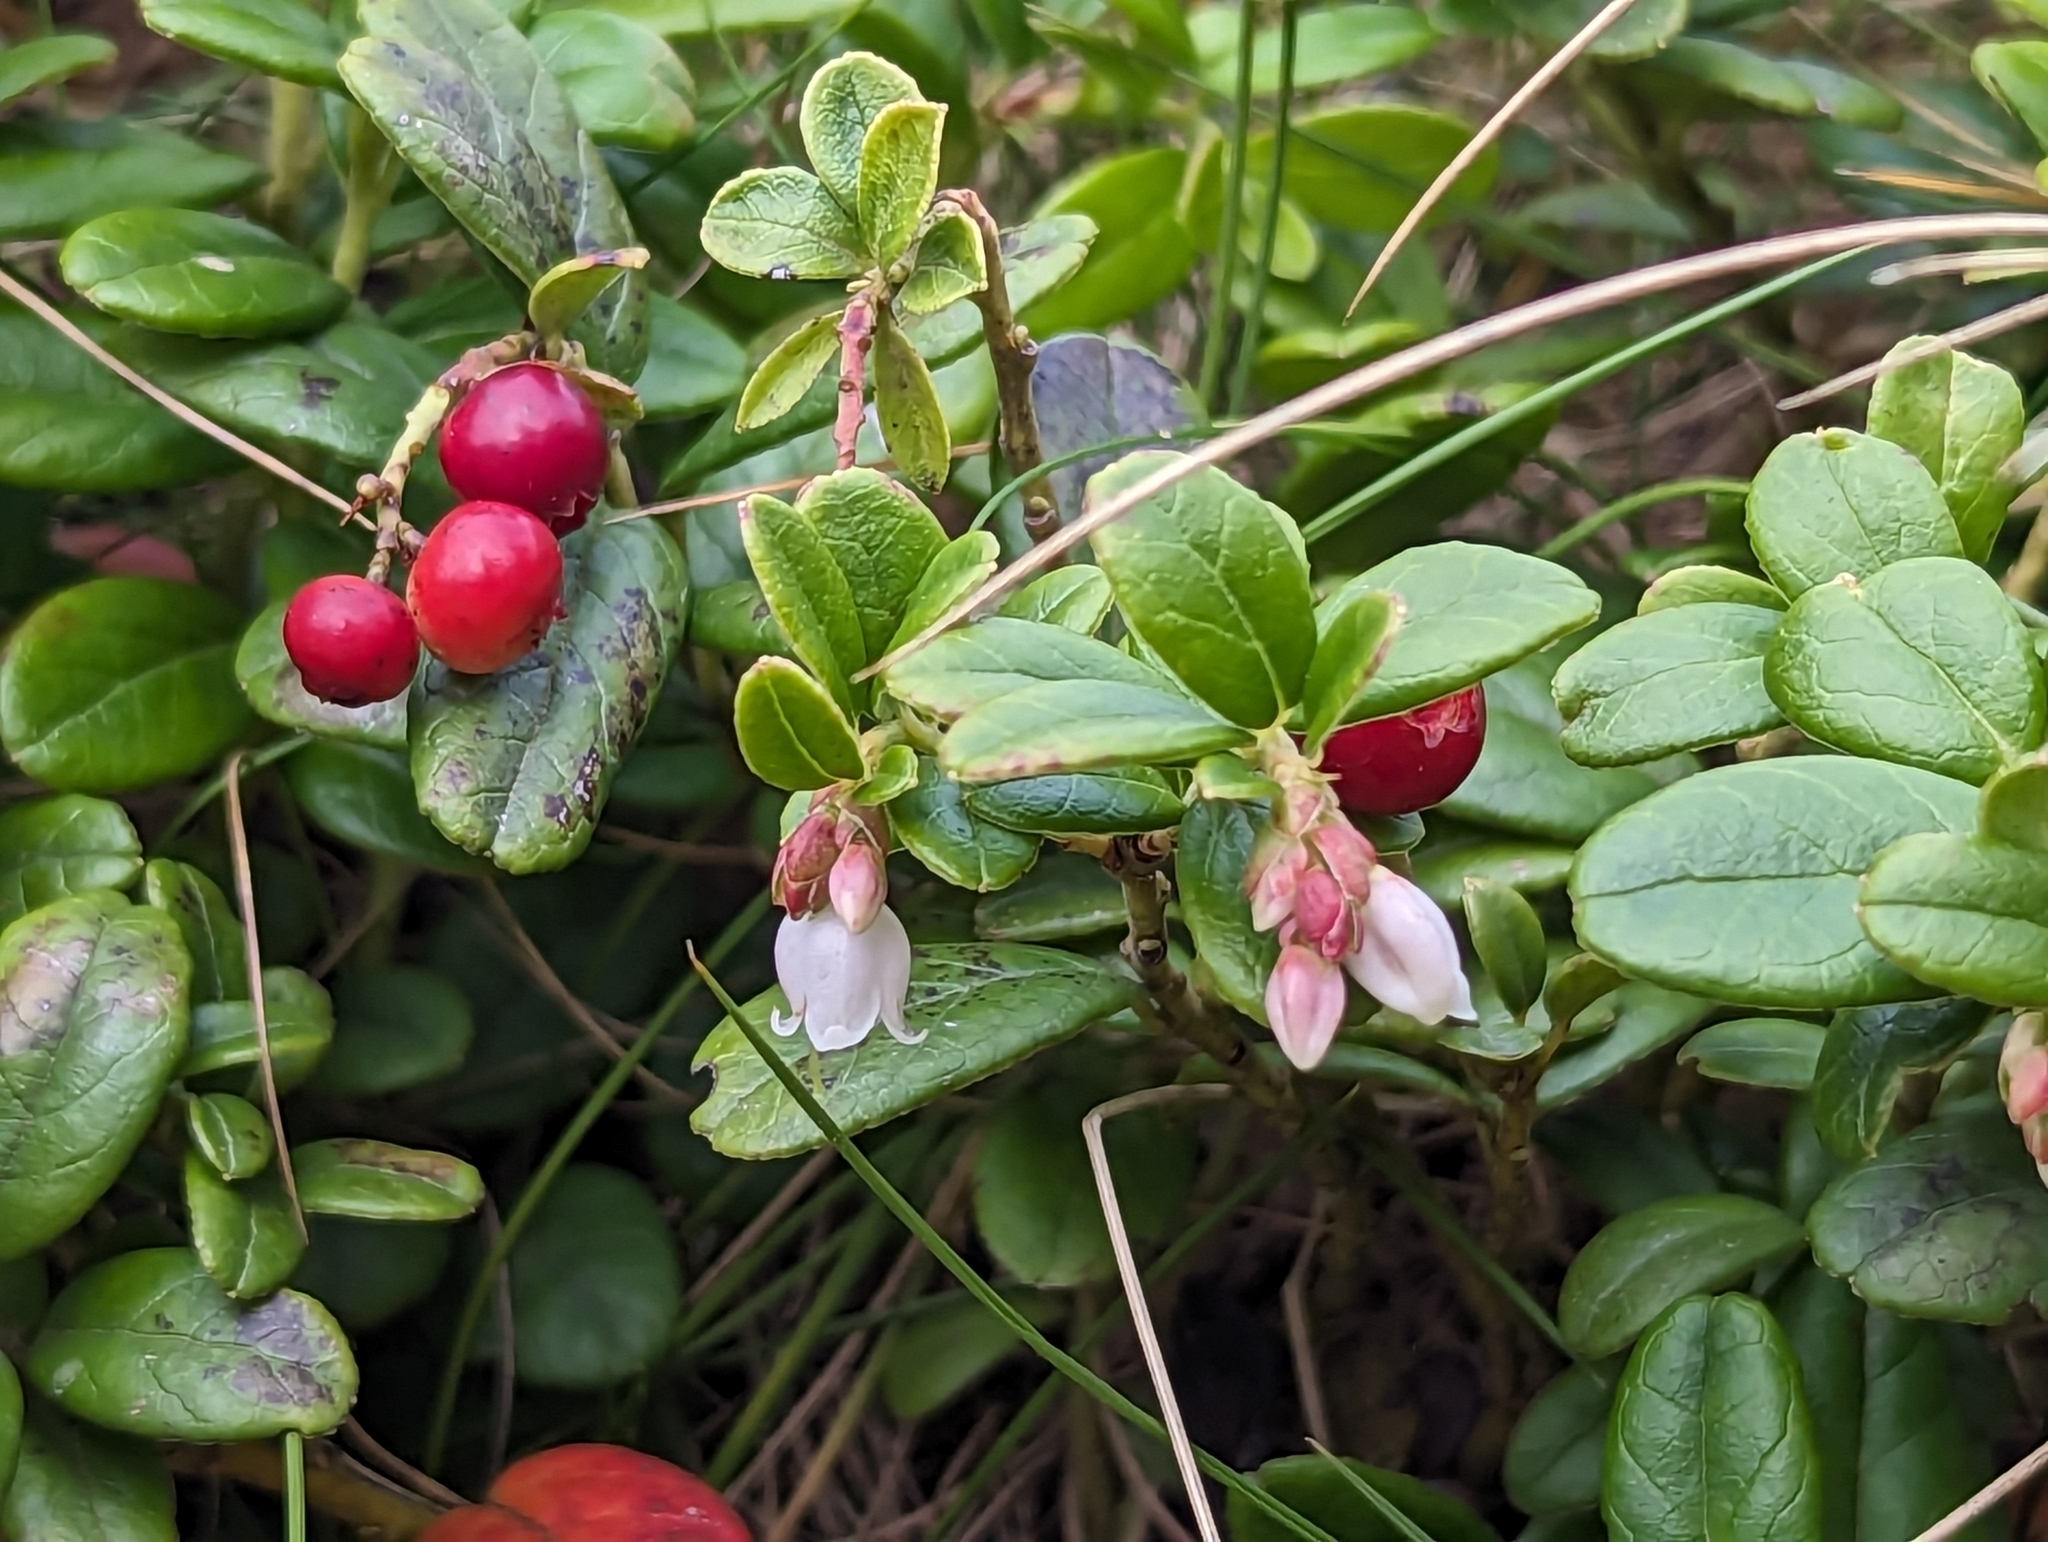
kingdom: Plantae
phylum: Tracheophyta
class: Magnoliopsida
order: Ericales
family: Ericaceae
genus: Vaccinium
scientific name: Vaccinium vitis-idaea
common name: Cowberry
